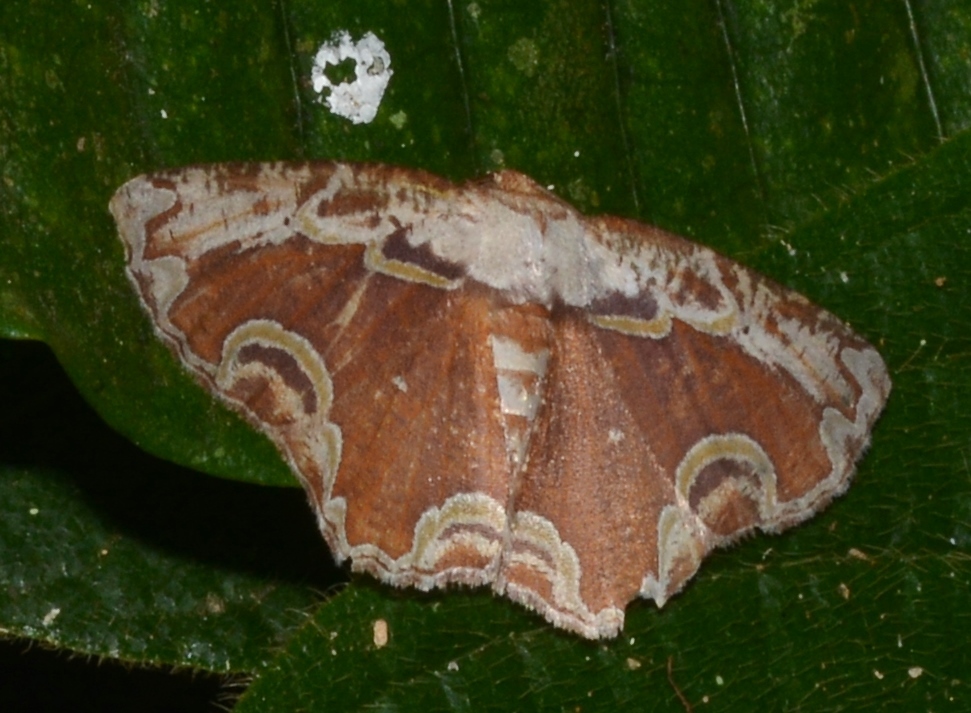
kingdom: Animalia
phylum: Arthropoda
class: Insecta
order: Lepidoptera
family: Geometridae
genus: Sabulodes
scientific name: Sabulodes ornatissima
